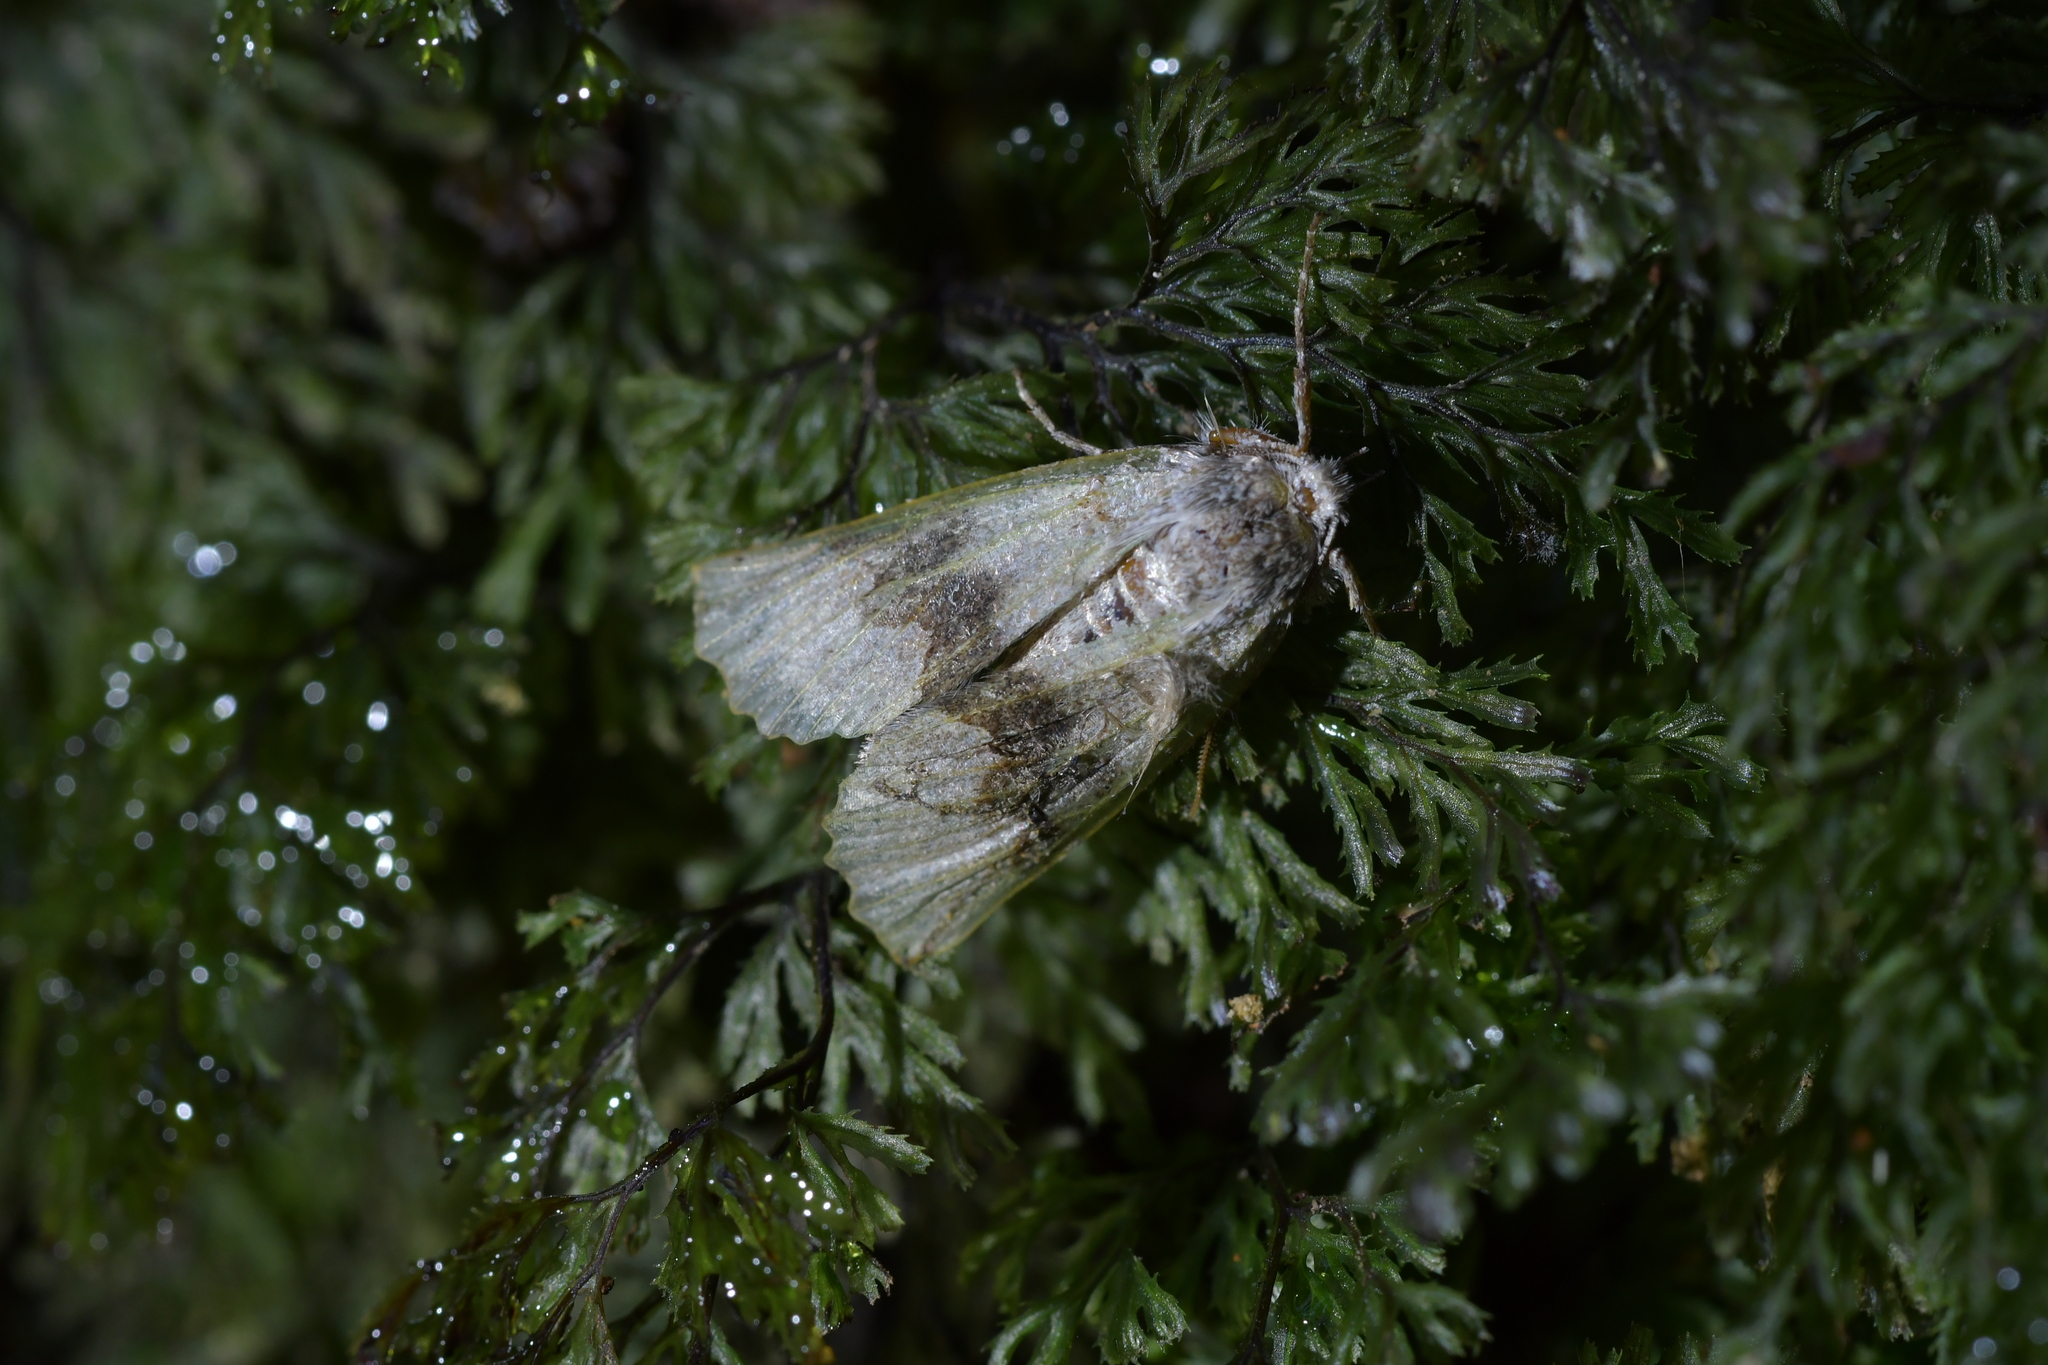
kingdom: Animalia
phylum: Arthropoda
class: Insecta
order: Lepidoptera
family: Geometridae
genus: Declana
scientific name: Declana floccosa
